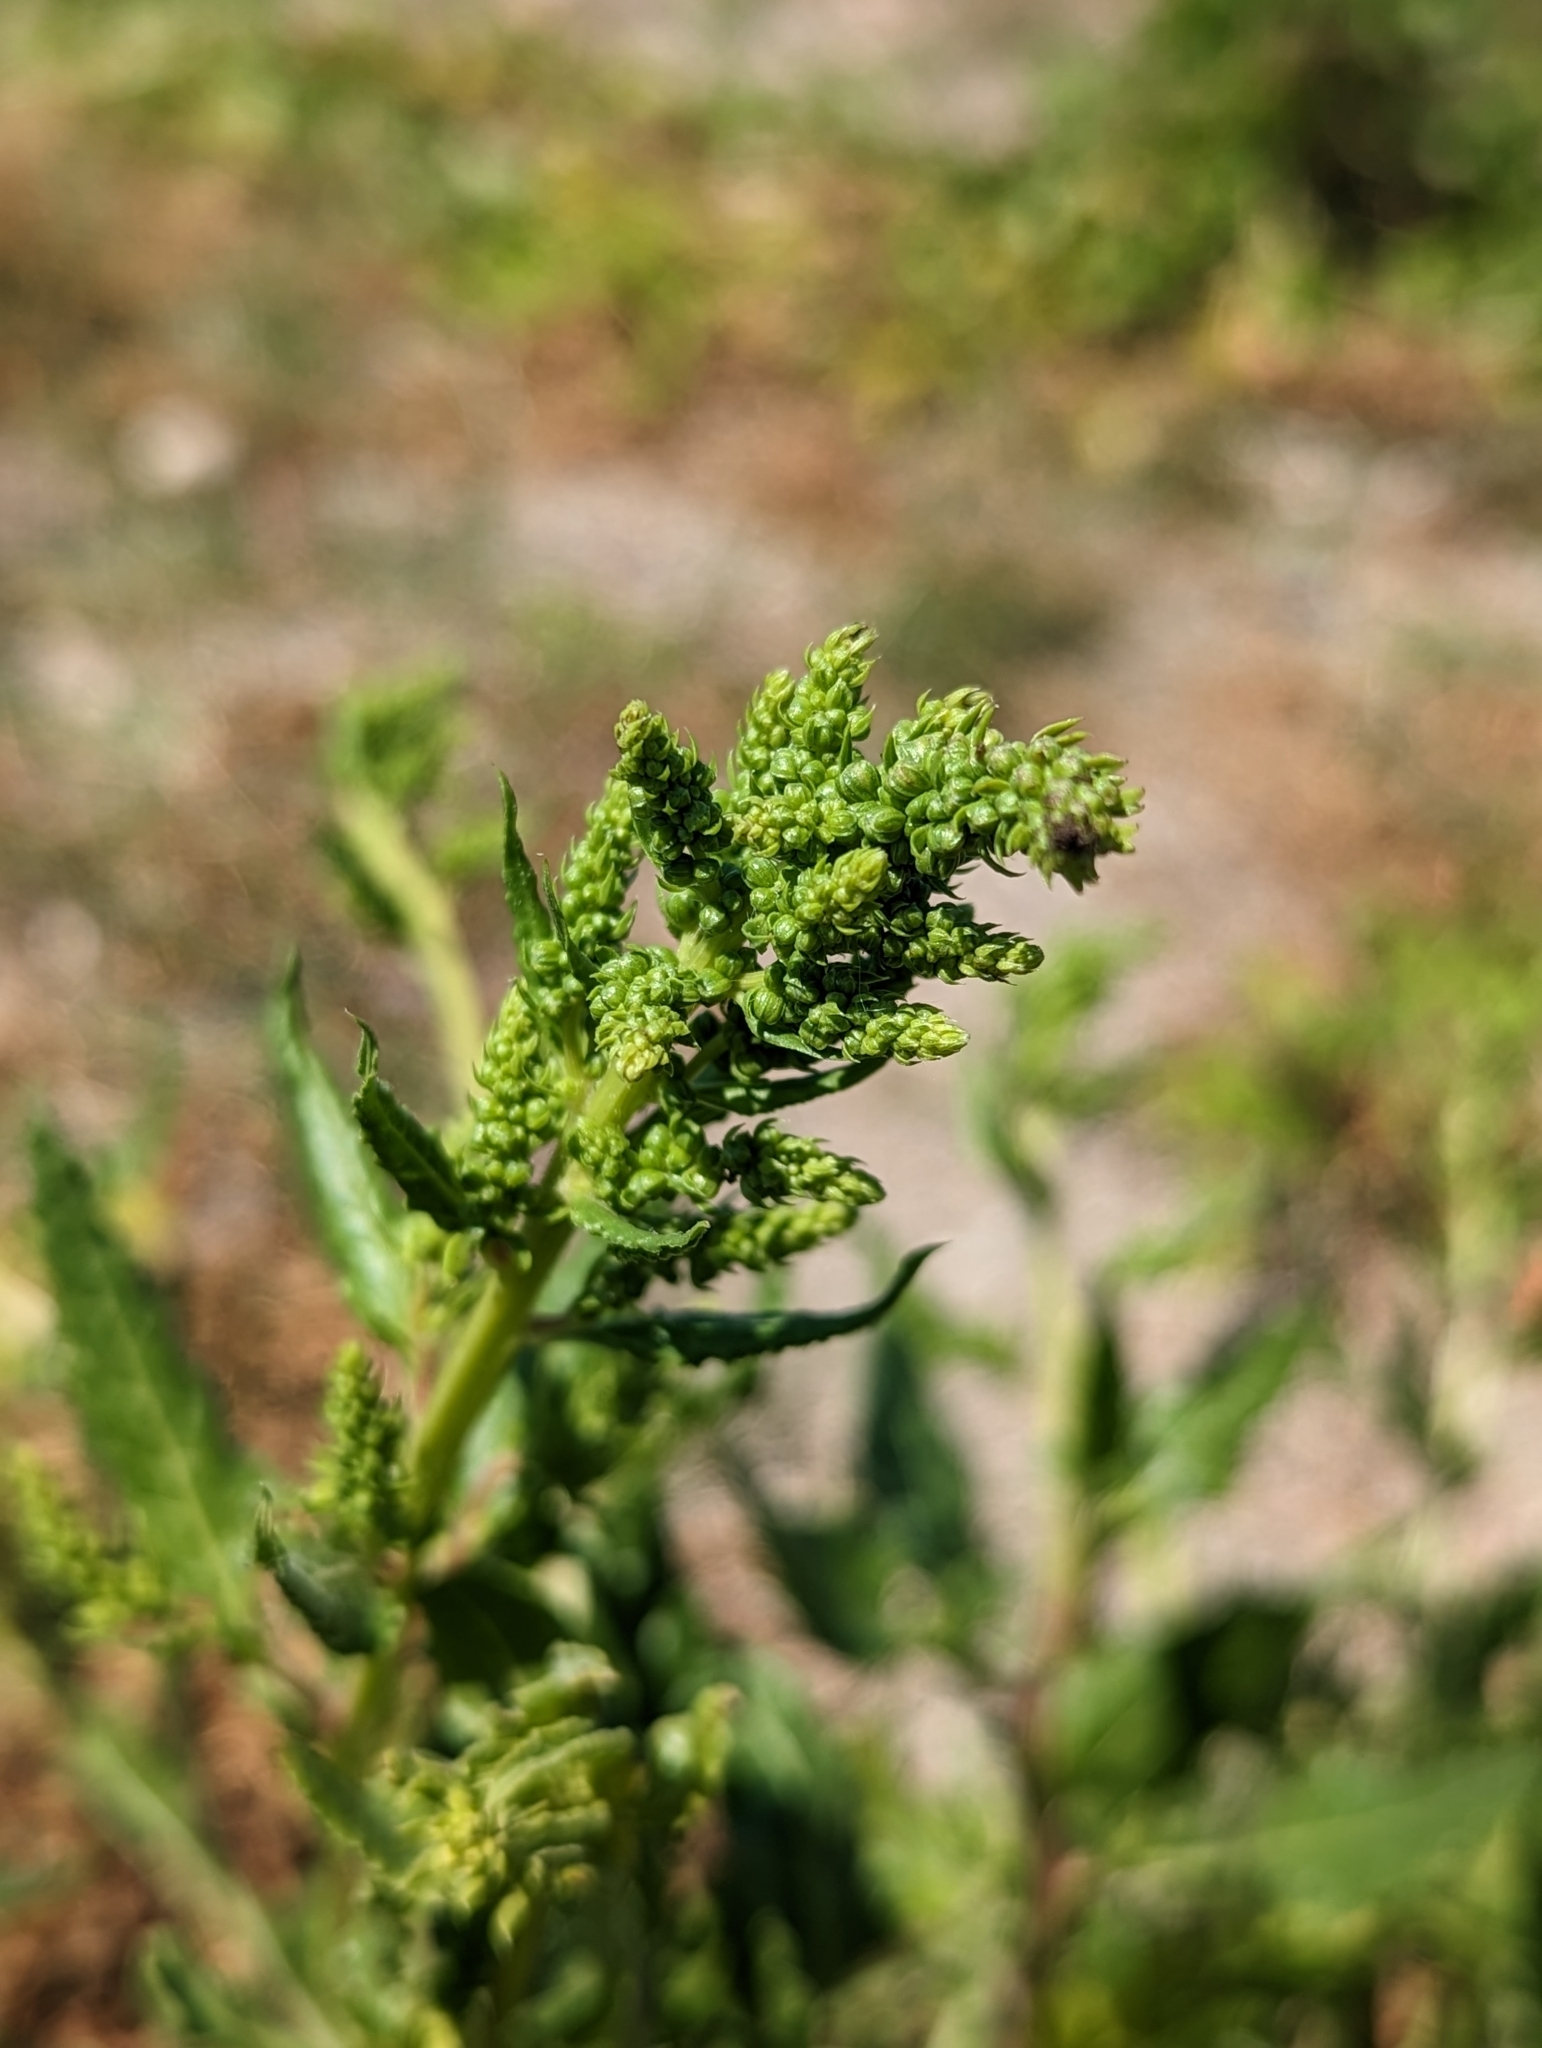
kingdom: Plantae
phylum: Tracheophyta
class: Magnoliopsida
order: Caryophyllales
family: Amaranthaceae
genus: Beta
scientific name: Beta vulgaris
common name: Beet
